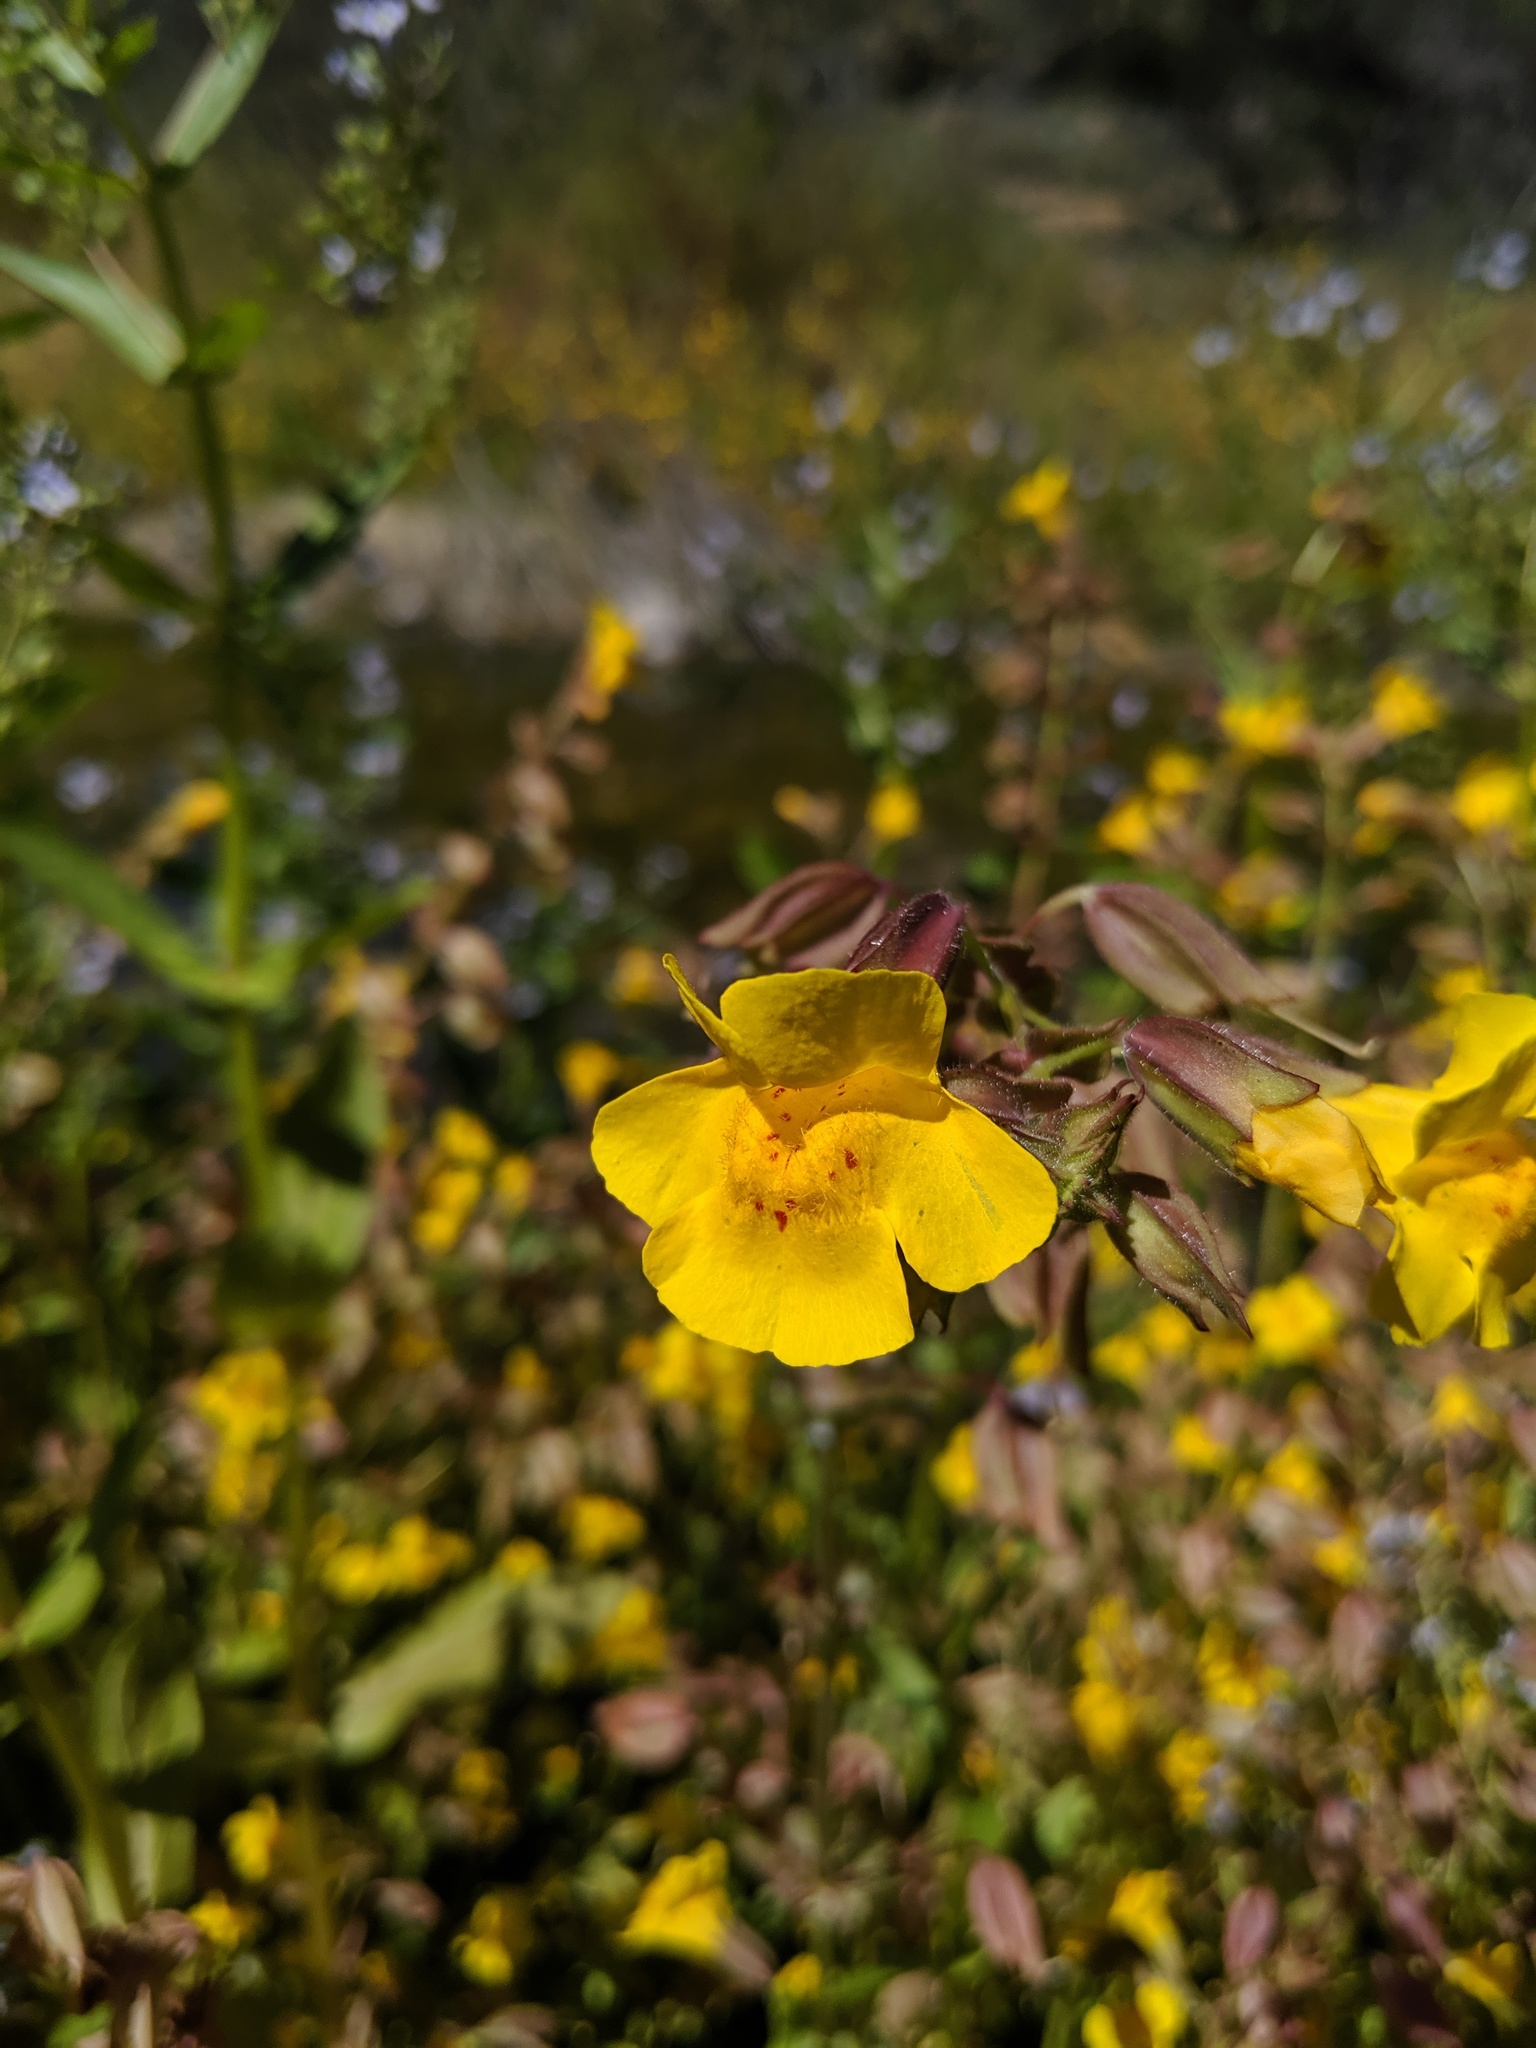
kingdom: Plantae
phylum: Tracheophyta
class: Magnoliopsida
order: Lamiales
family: Phrymaceae
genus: Erythranthe
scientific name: Erythranthe guttata
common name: Monkeyflower
